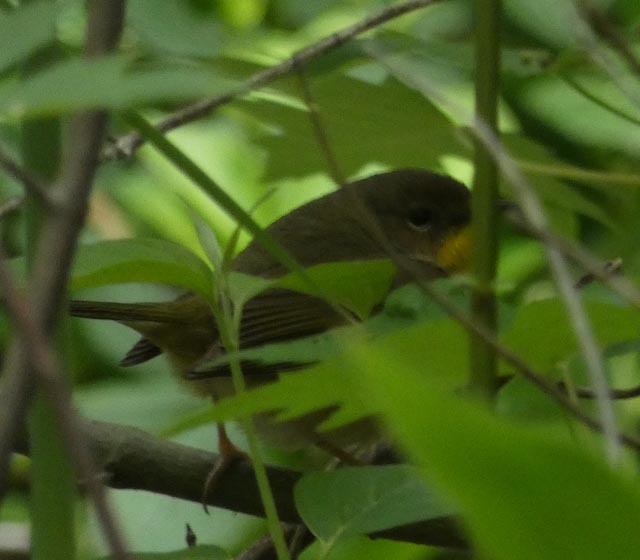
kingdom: Animalia
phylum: Chordata
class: Aves
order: Passeriformes
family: Parulidae
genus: Geothlypis
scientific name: Geothlypis trichas
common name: Common yellowthroat
